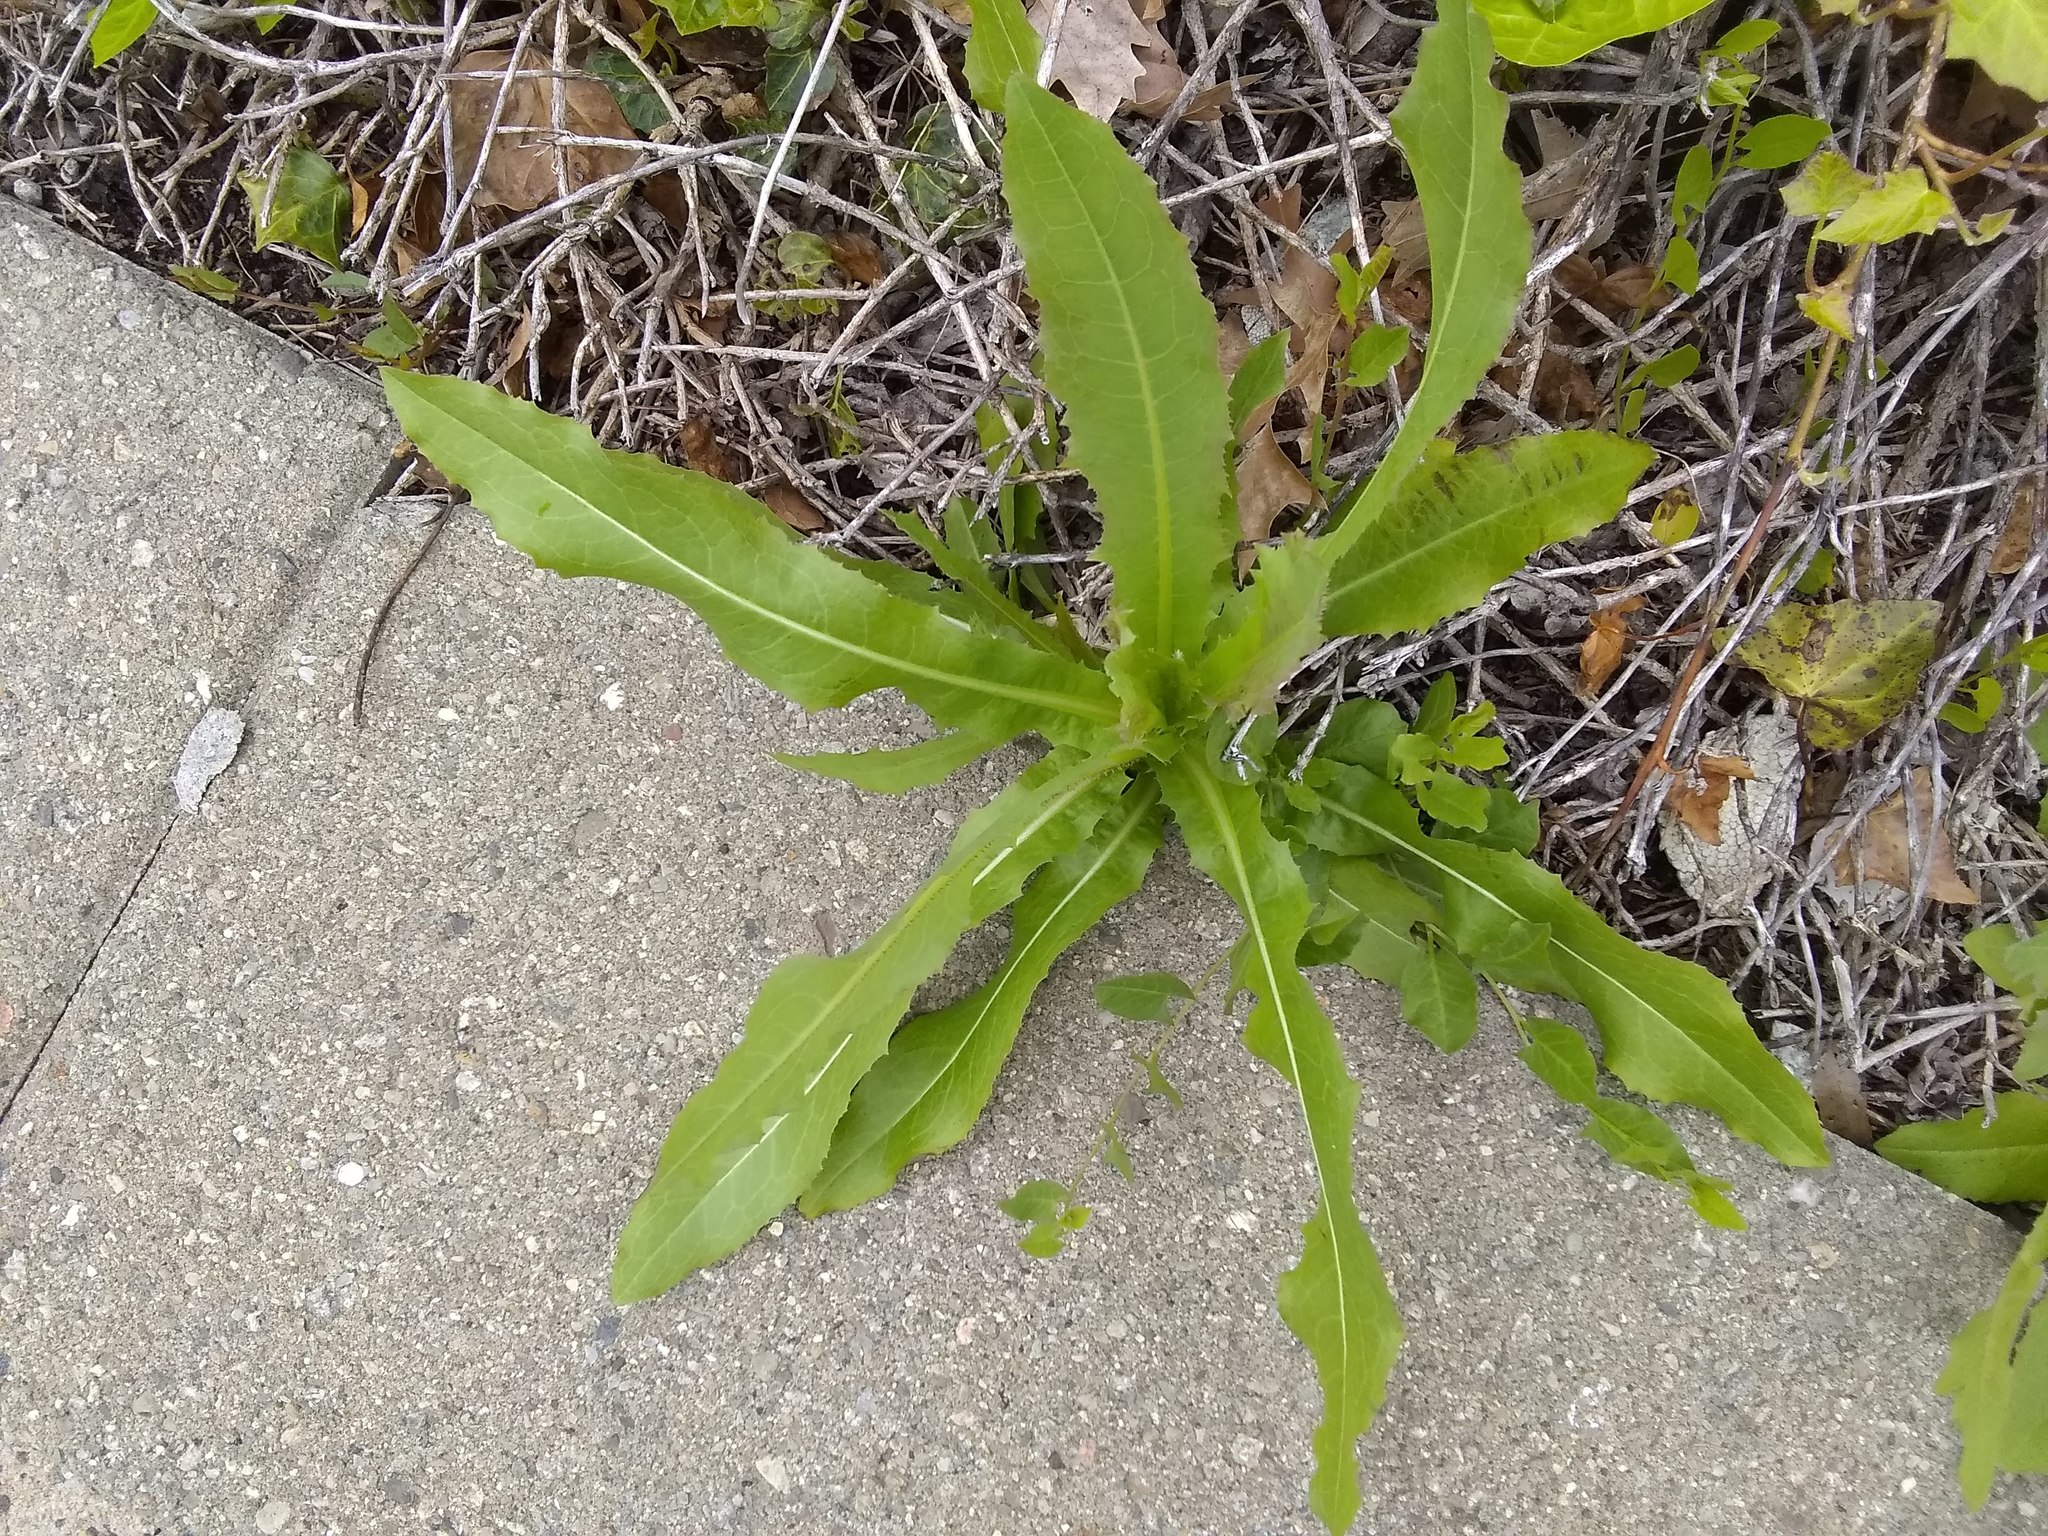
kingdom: Plantae
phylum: Tracheophyta
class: Magnoliopsida
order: Asterales
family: Asteraceae
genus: Lactuca
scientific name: Lactuca serriola
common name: Prickly lettuce
